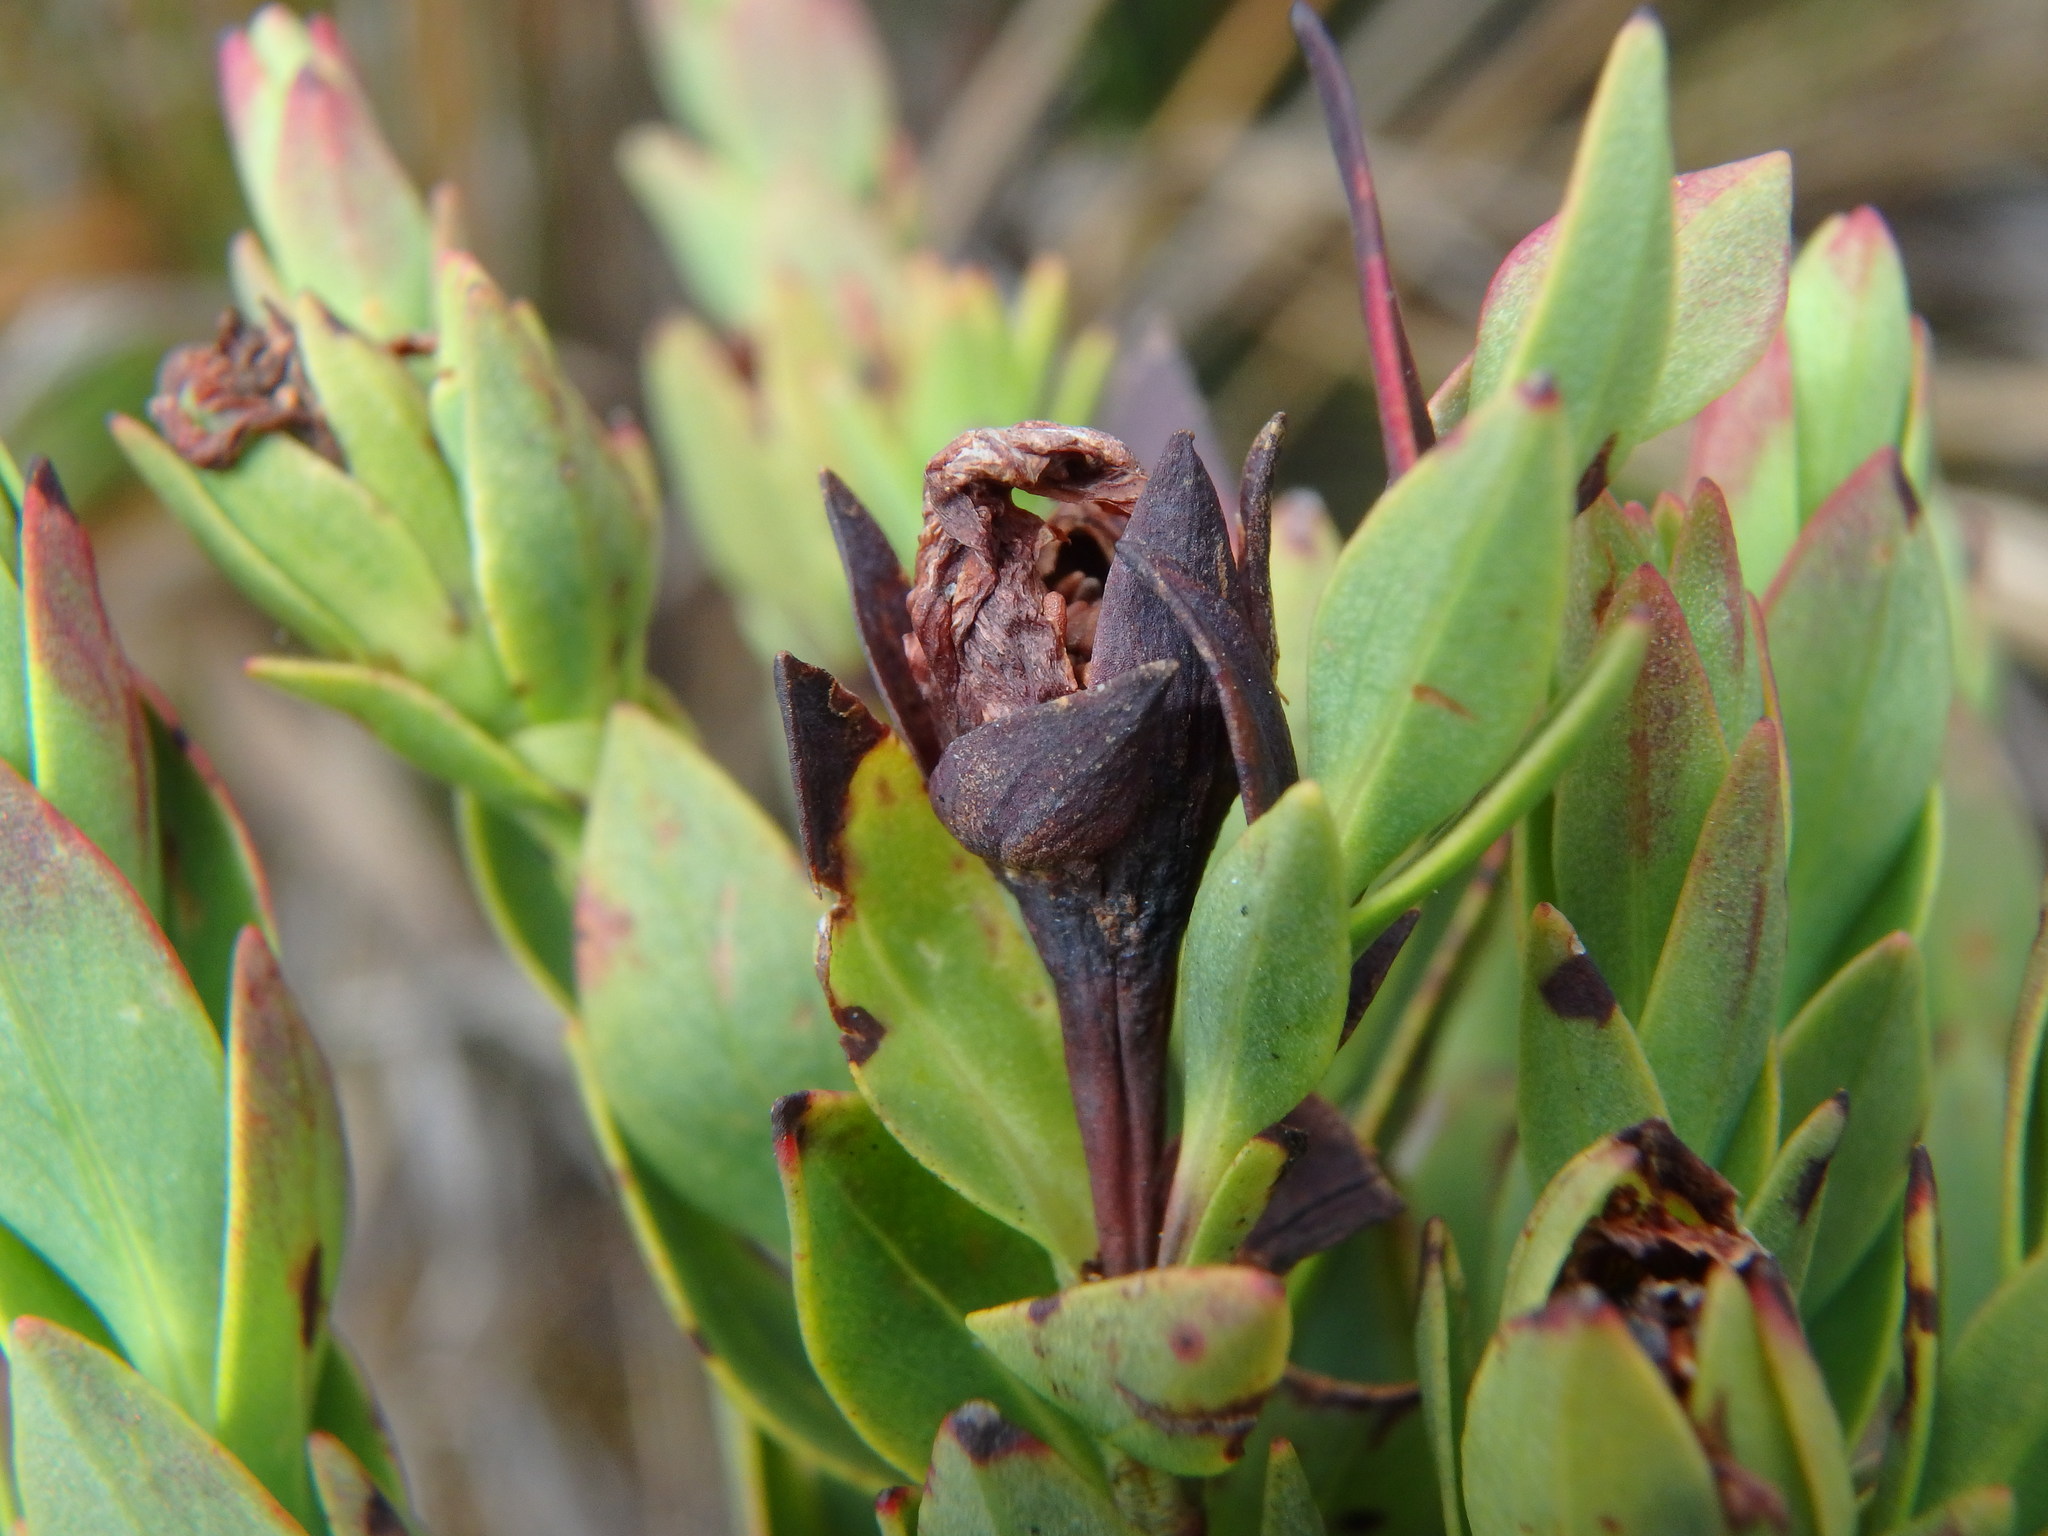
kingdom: Plantae
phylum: Tracheophyta
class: Magnoliopsida
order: Asterales
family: Asteraceae
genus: Monticalia
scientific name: Monticalia vaccinioides
